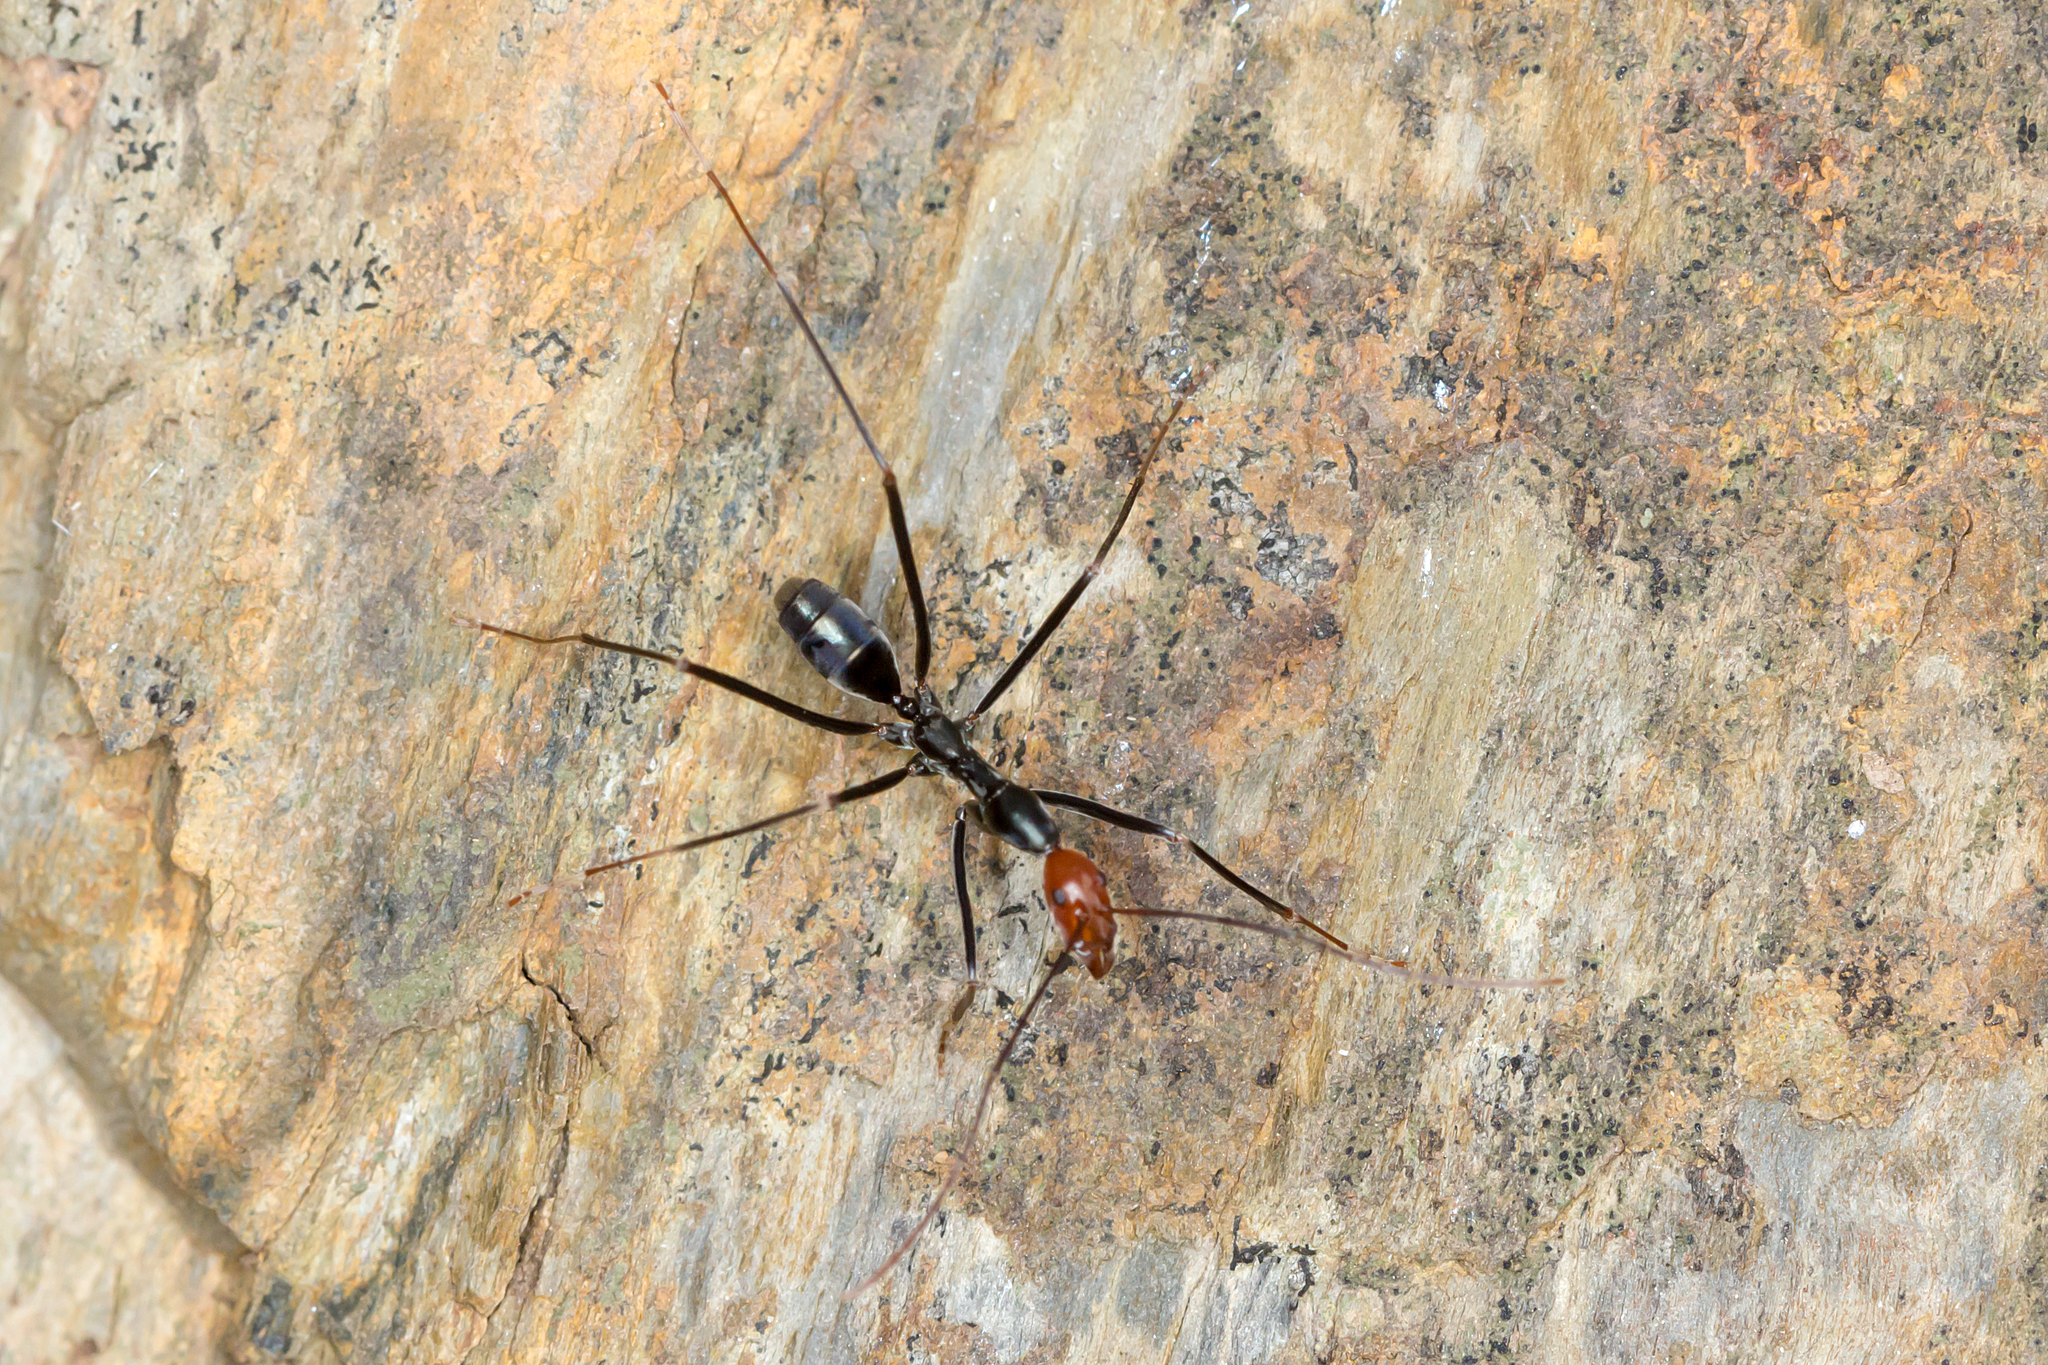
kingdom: Animalia
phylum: Arthropoda
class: Insecta
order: Hymenoptera
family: Formicidae
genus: Leptomyrmex
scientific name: Leptomyrmex erythrocephalus
